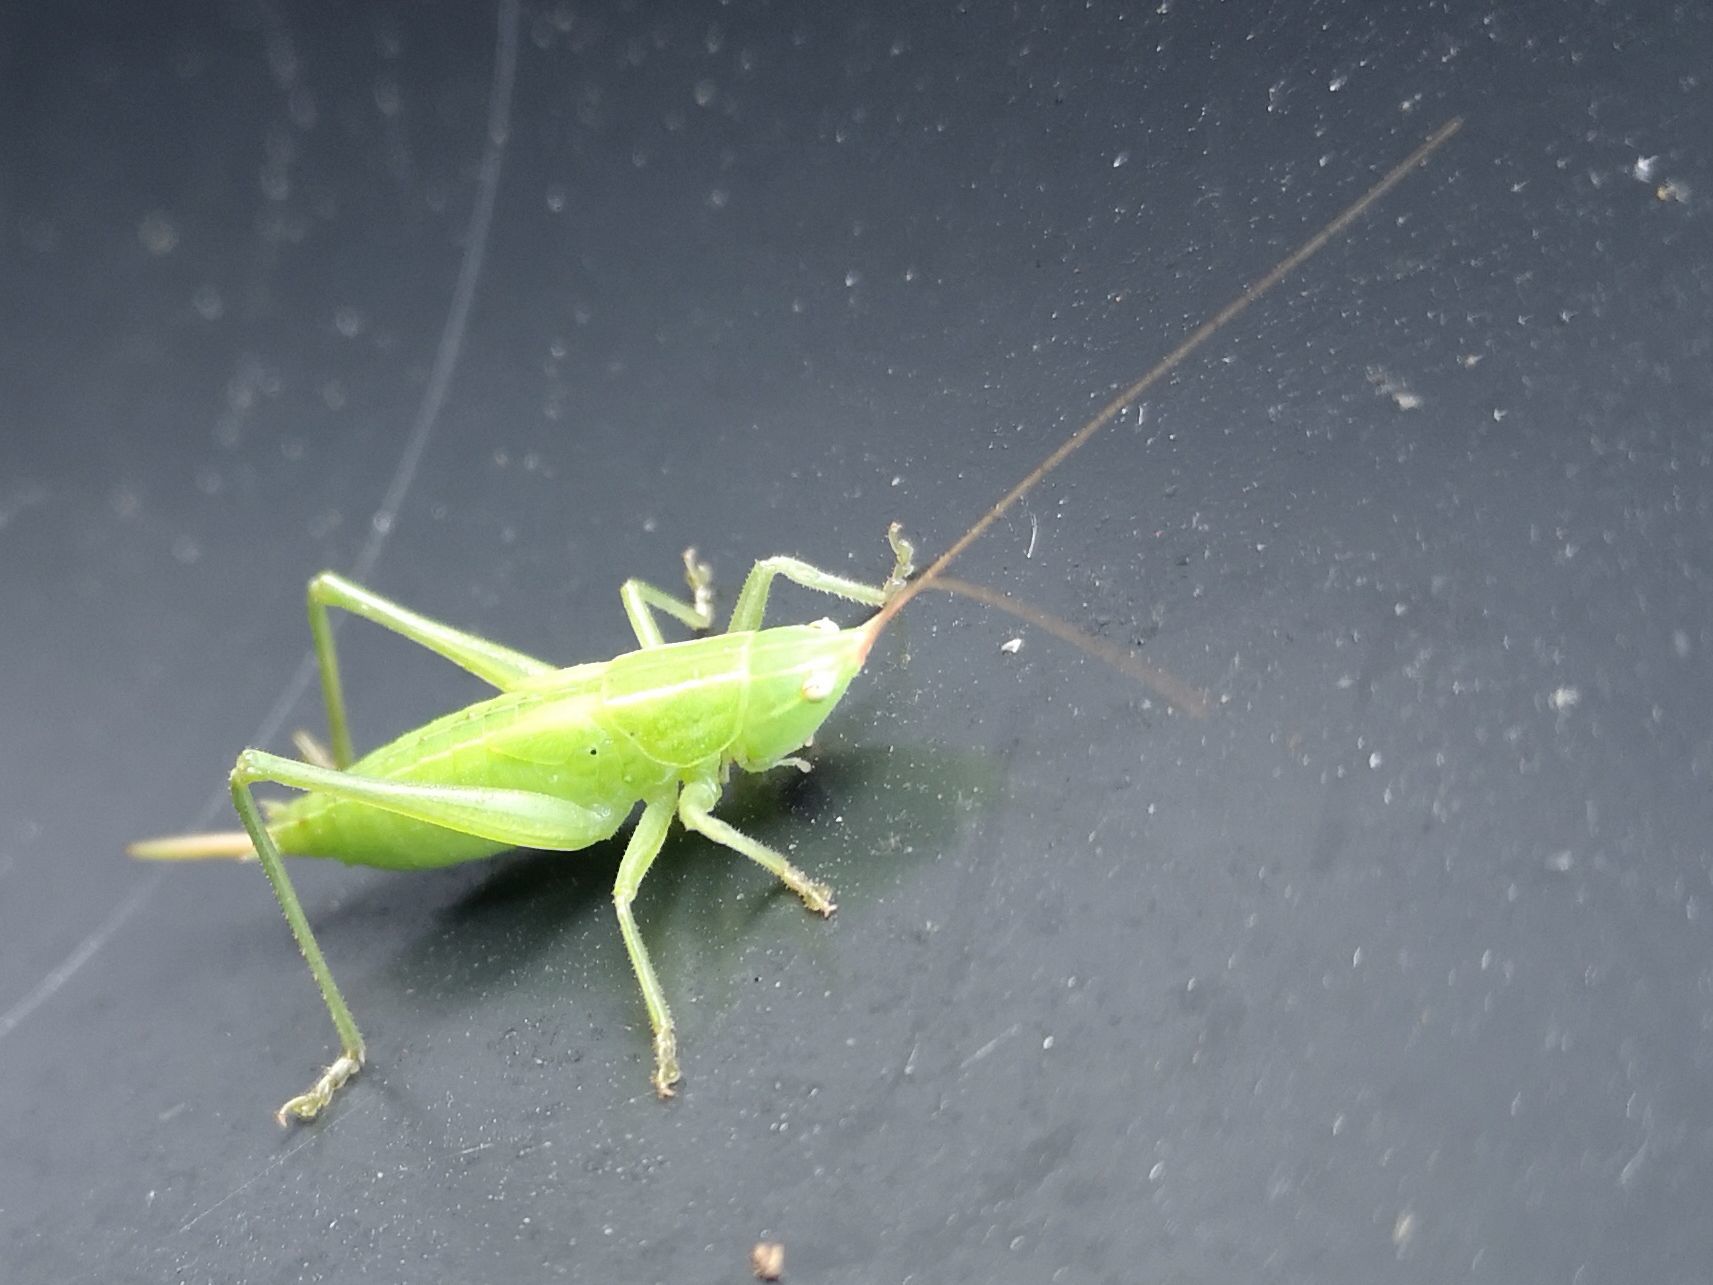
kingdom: Animalia
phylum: Arthropoda
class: Insecta
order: Orthoptera
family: Tettigoniidae
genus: Ruspolia
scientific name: Ruspolia nitidula
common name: Large conehead
